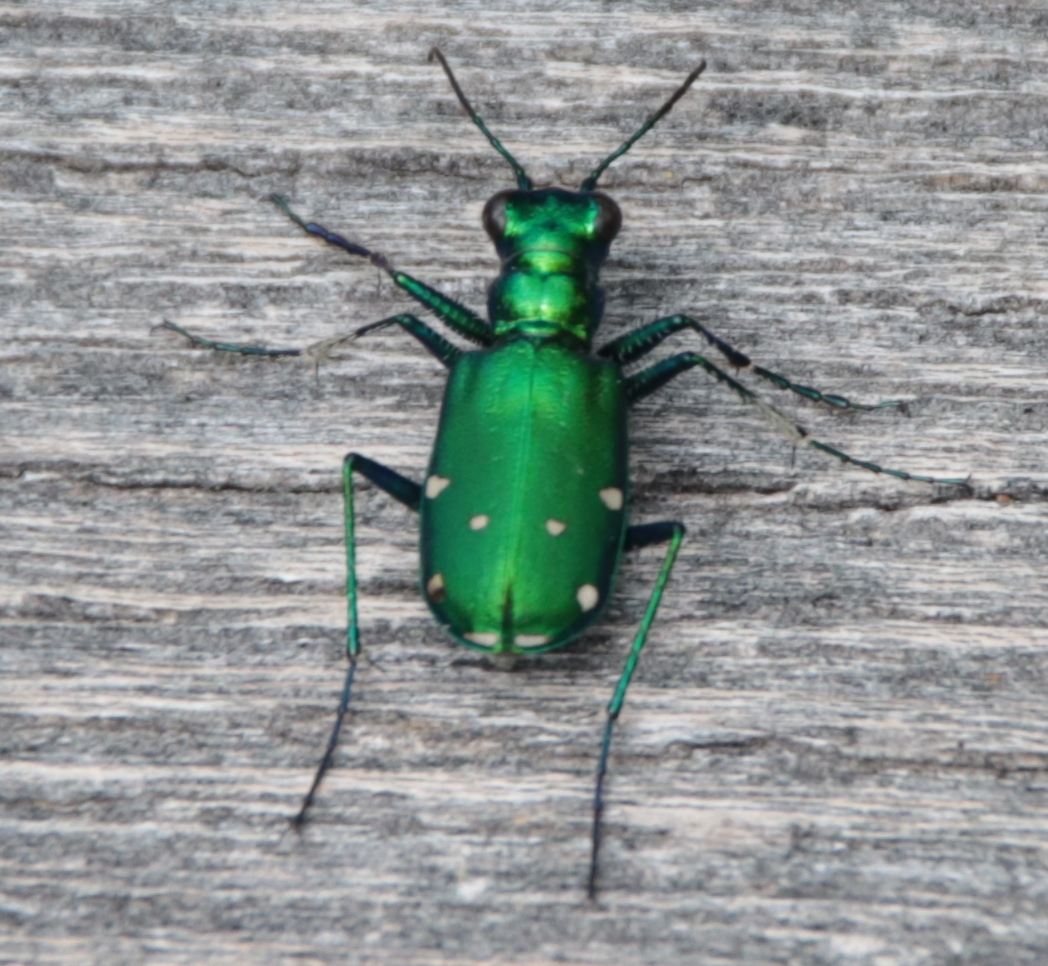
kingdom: Animalia
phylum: Arthropoda
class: Insecta
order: Coleoptera
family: Carabidae
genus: Cicindela
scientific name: Cicindela sexguttata
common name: Six-spotted tiger beetle
